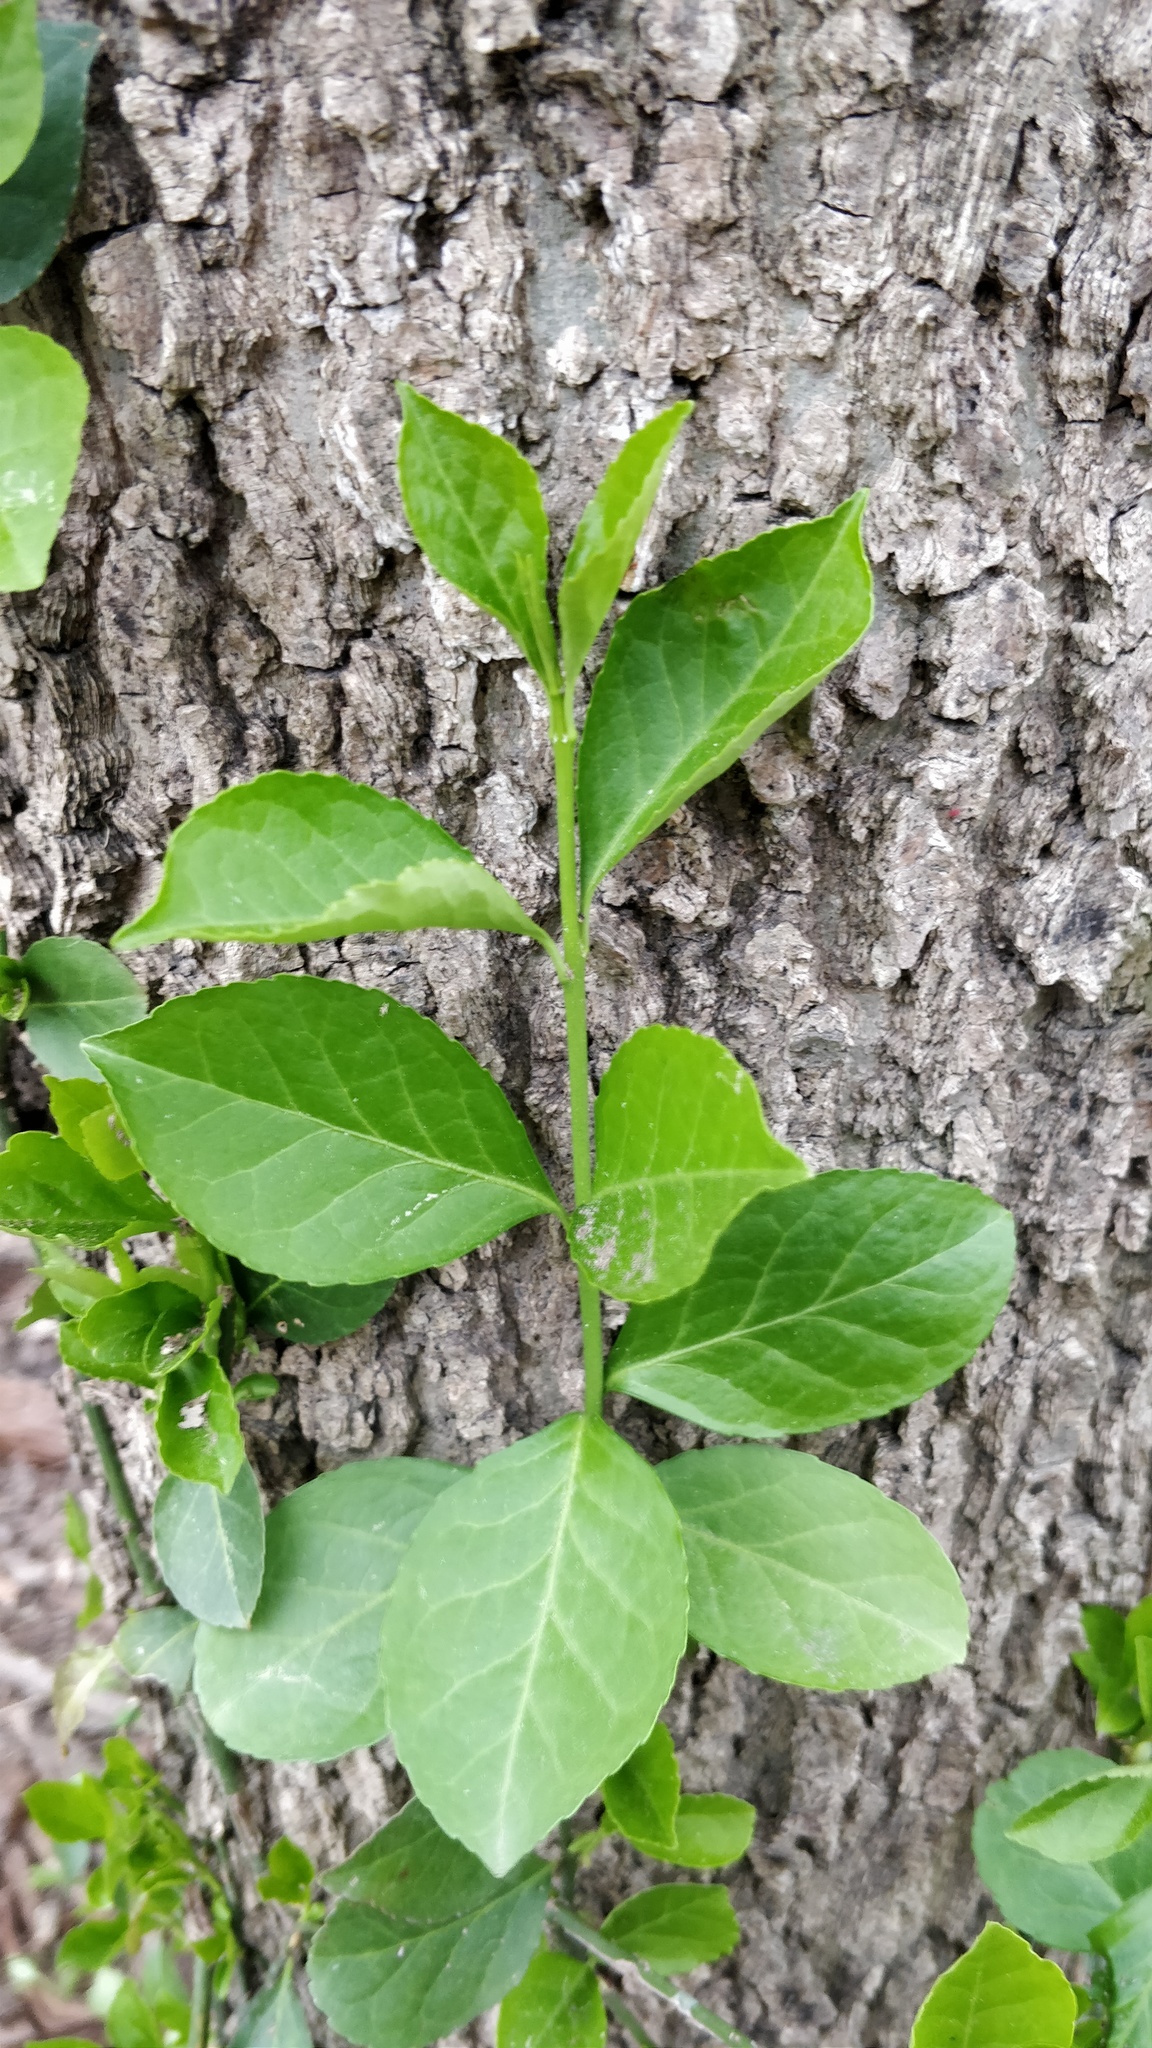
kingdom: Plantae
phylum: Tracheophyta
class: Magnoliopsida
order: Celastrales
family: Celastraceae
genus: Euonymus
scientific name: Euonymus fortunei
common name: Climbing euonymus
